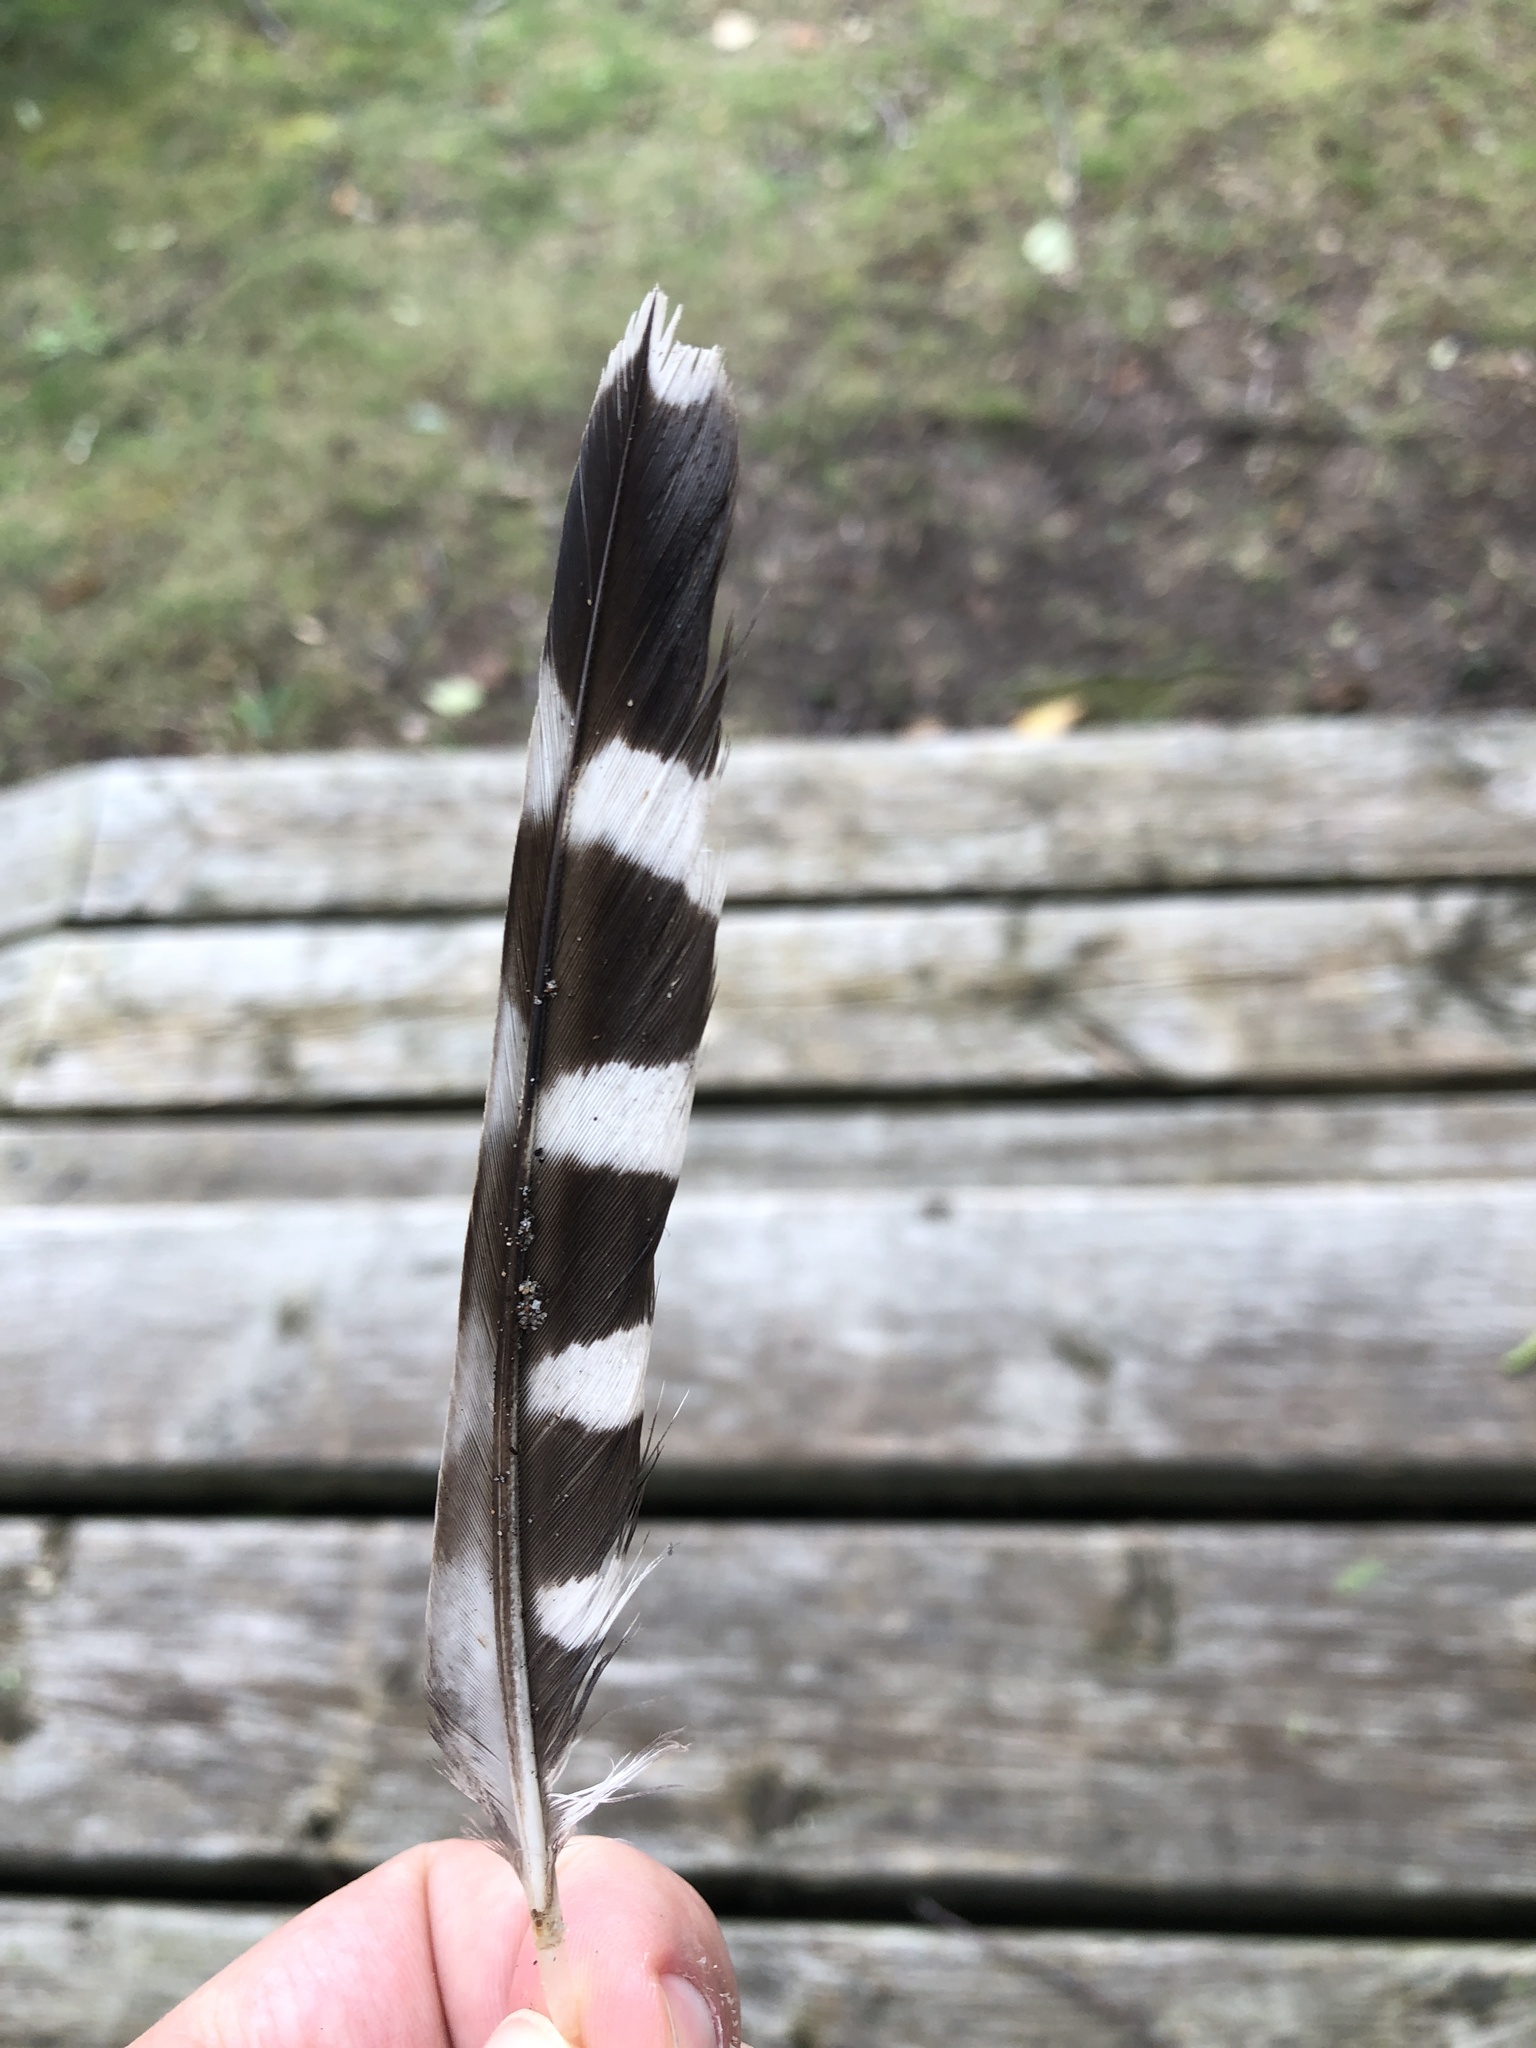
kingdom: Animalia
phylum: Chordata
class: Aves
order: Falconiformes
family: Falconidae
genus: Falco
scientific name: Falco columbarius
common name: Merlin
